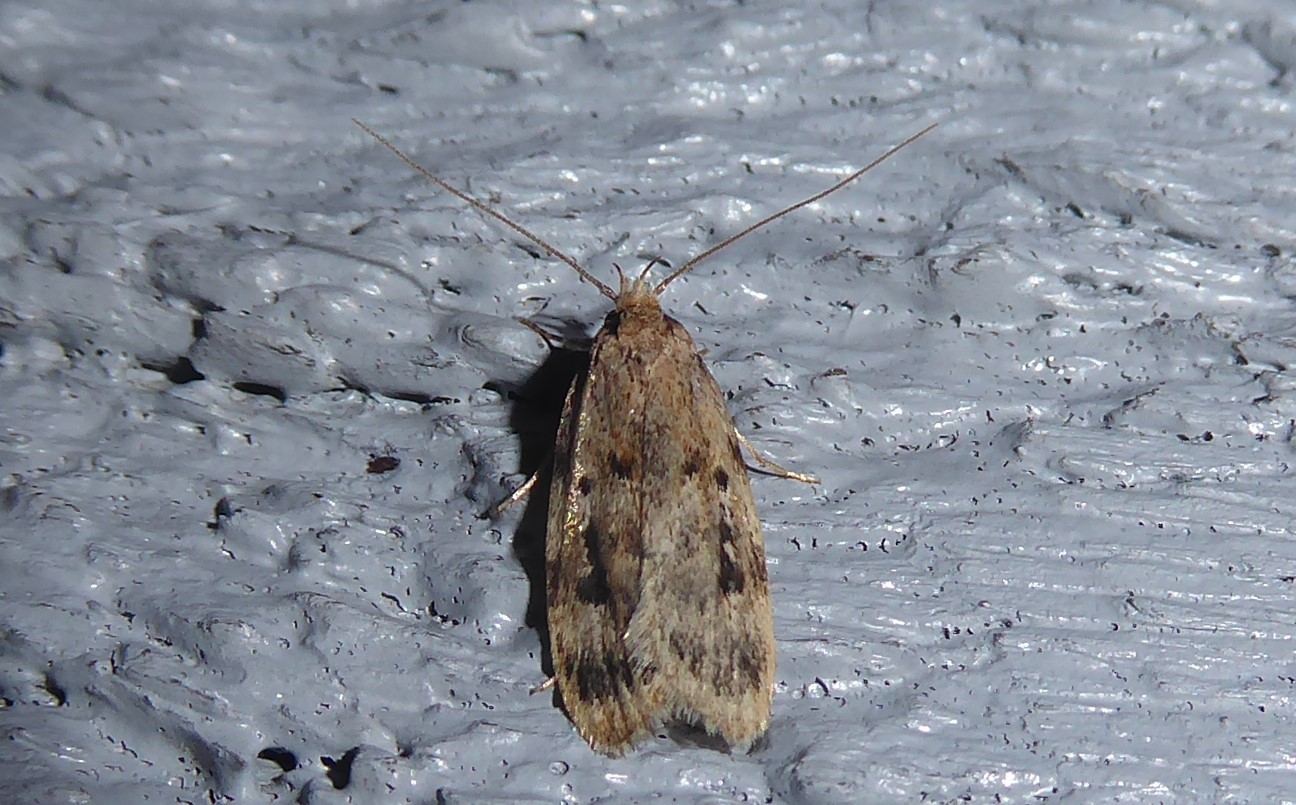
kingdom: Animalia
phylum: Arthropoda
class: Insecta
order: Lepidoptera
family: Oecophoridae
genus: Barea
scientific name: Barea exarcha
